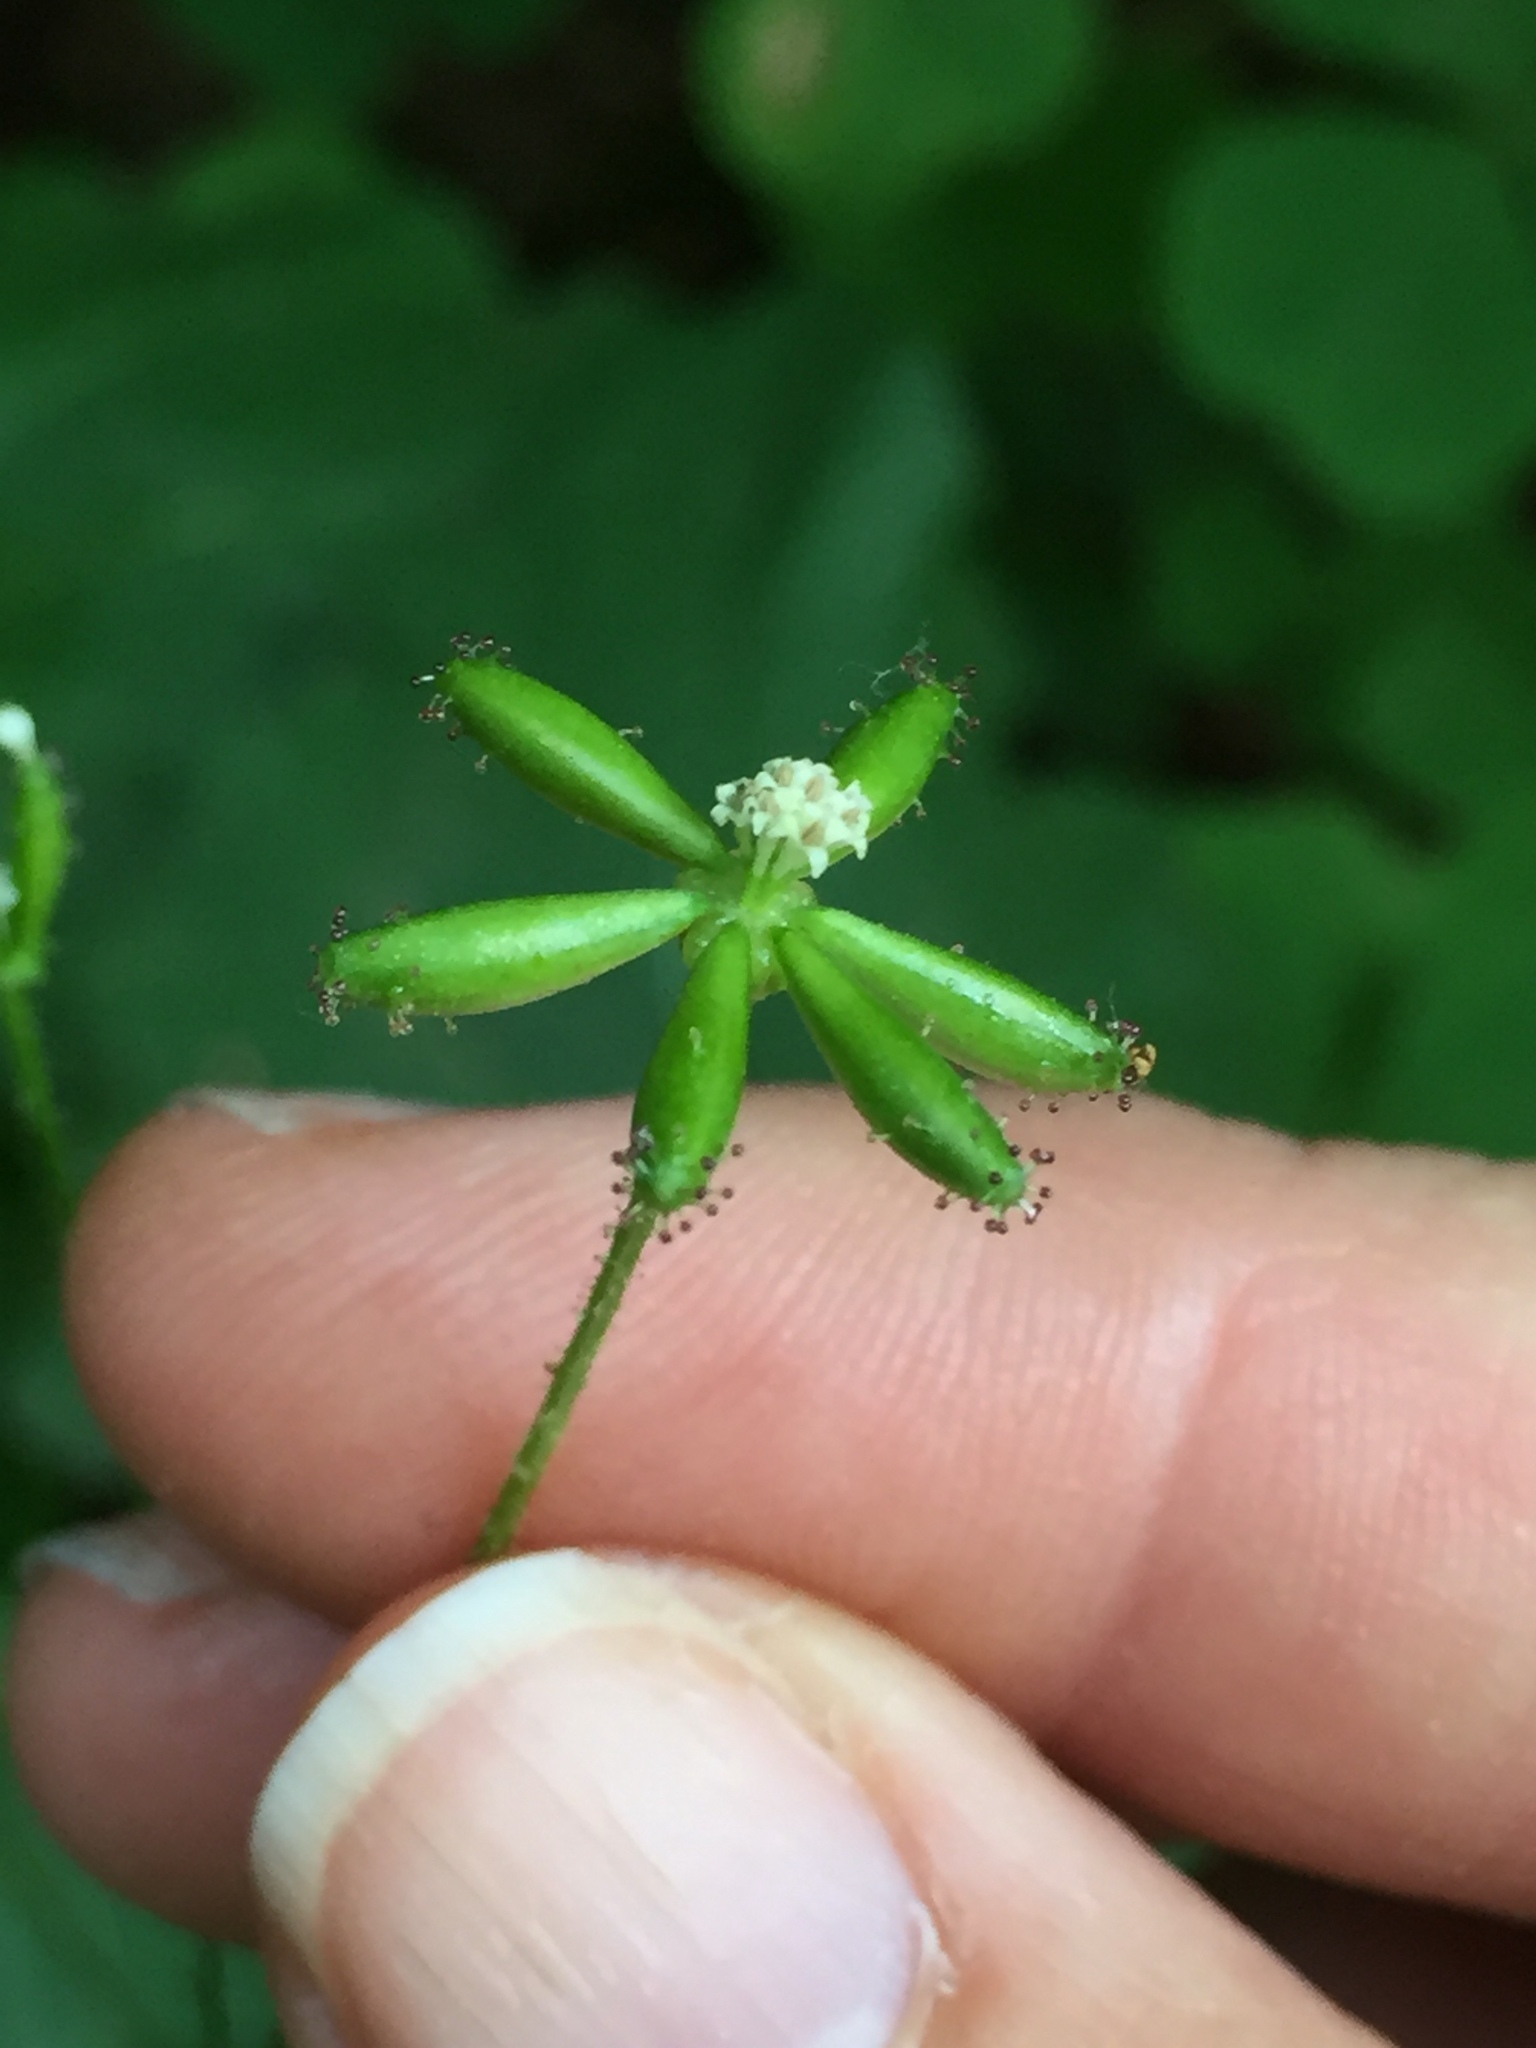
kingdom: Plantae
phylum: Tracheophyta
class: Magnoliopsida
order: Asterales
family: Asteraceae
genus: Adenocaulon
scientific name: Adenocaulon bicolor
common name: Trailplant
